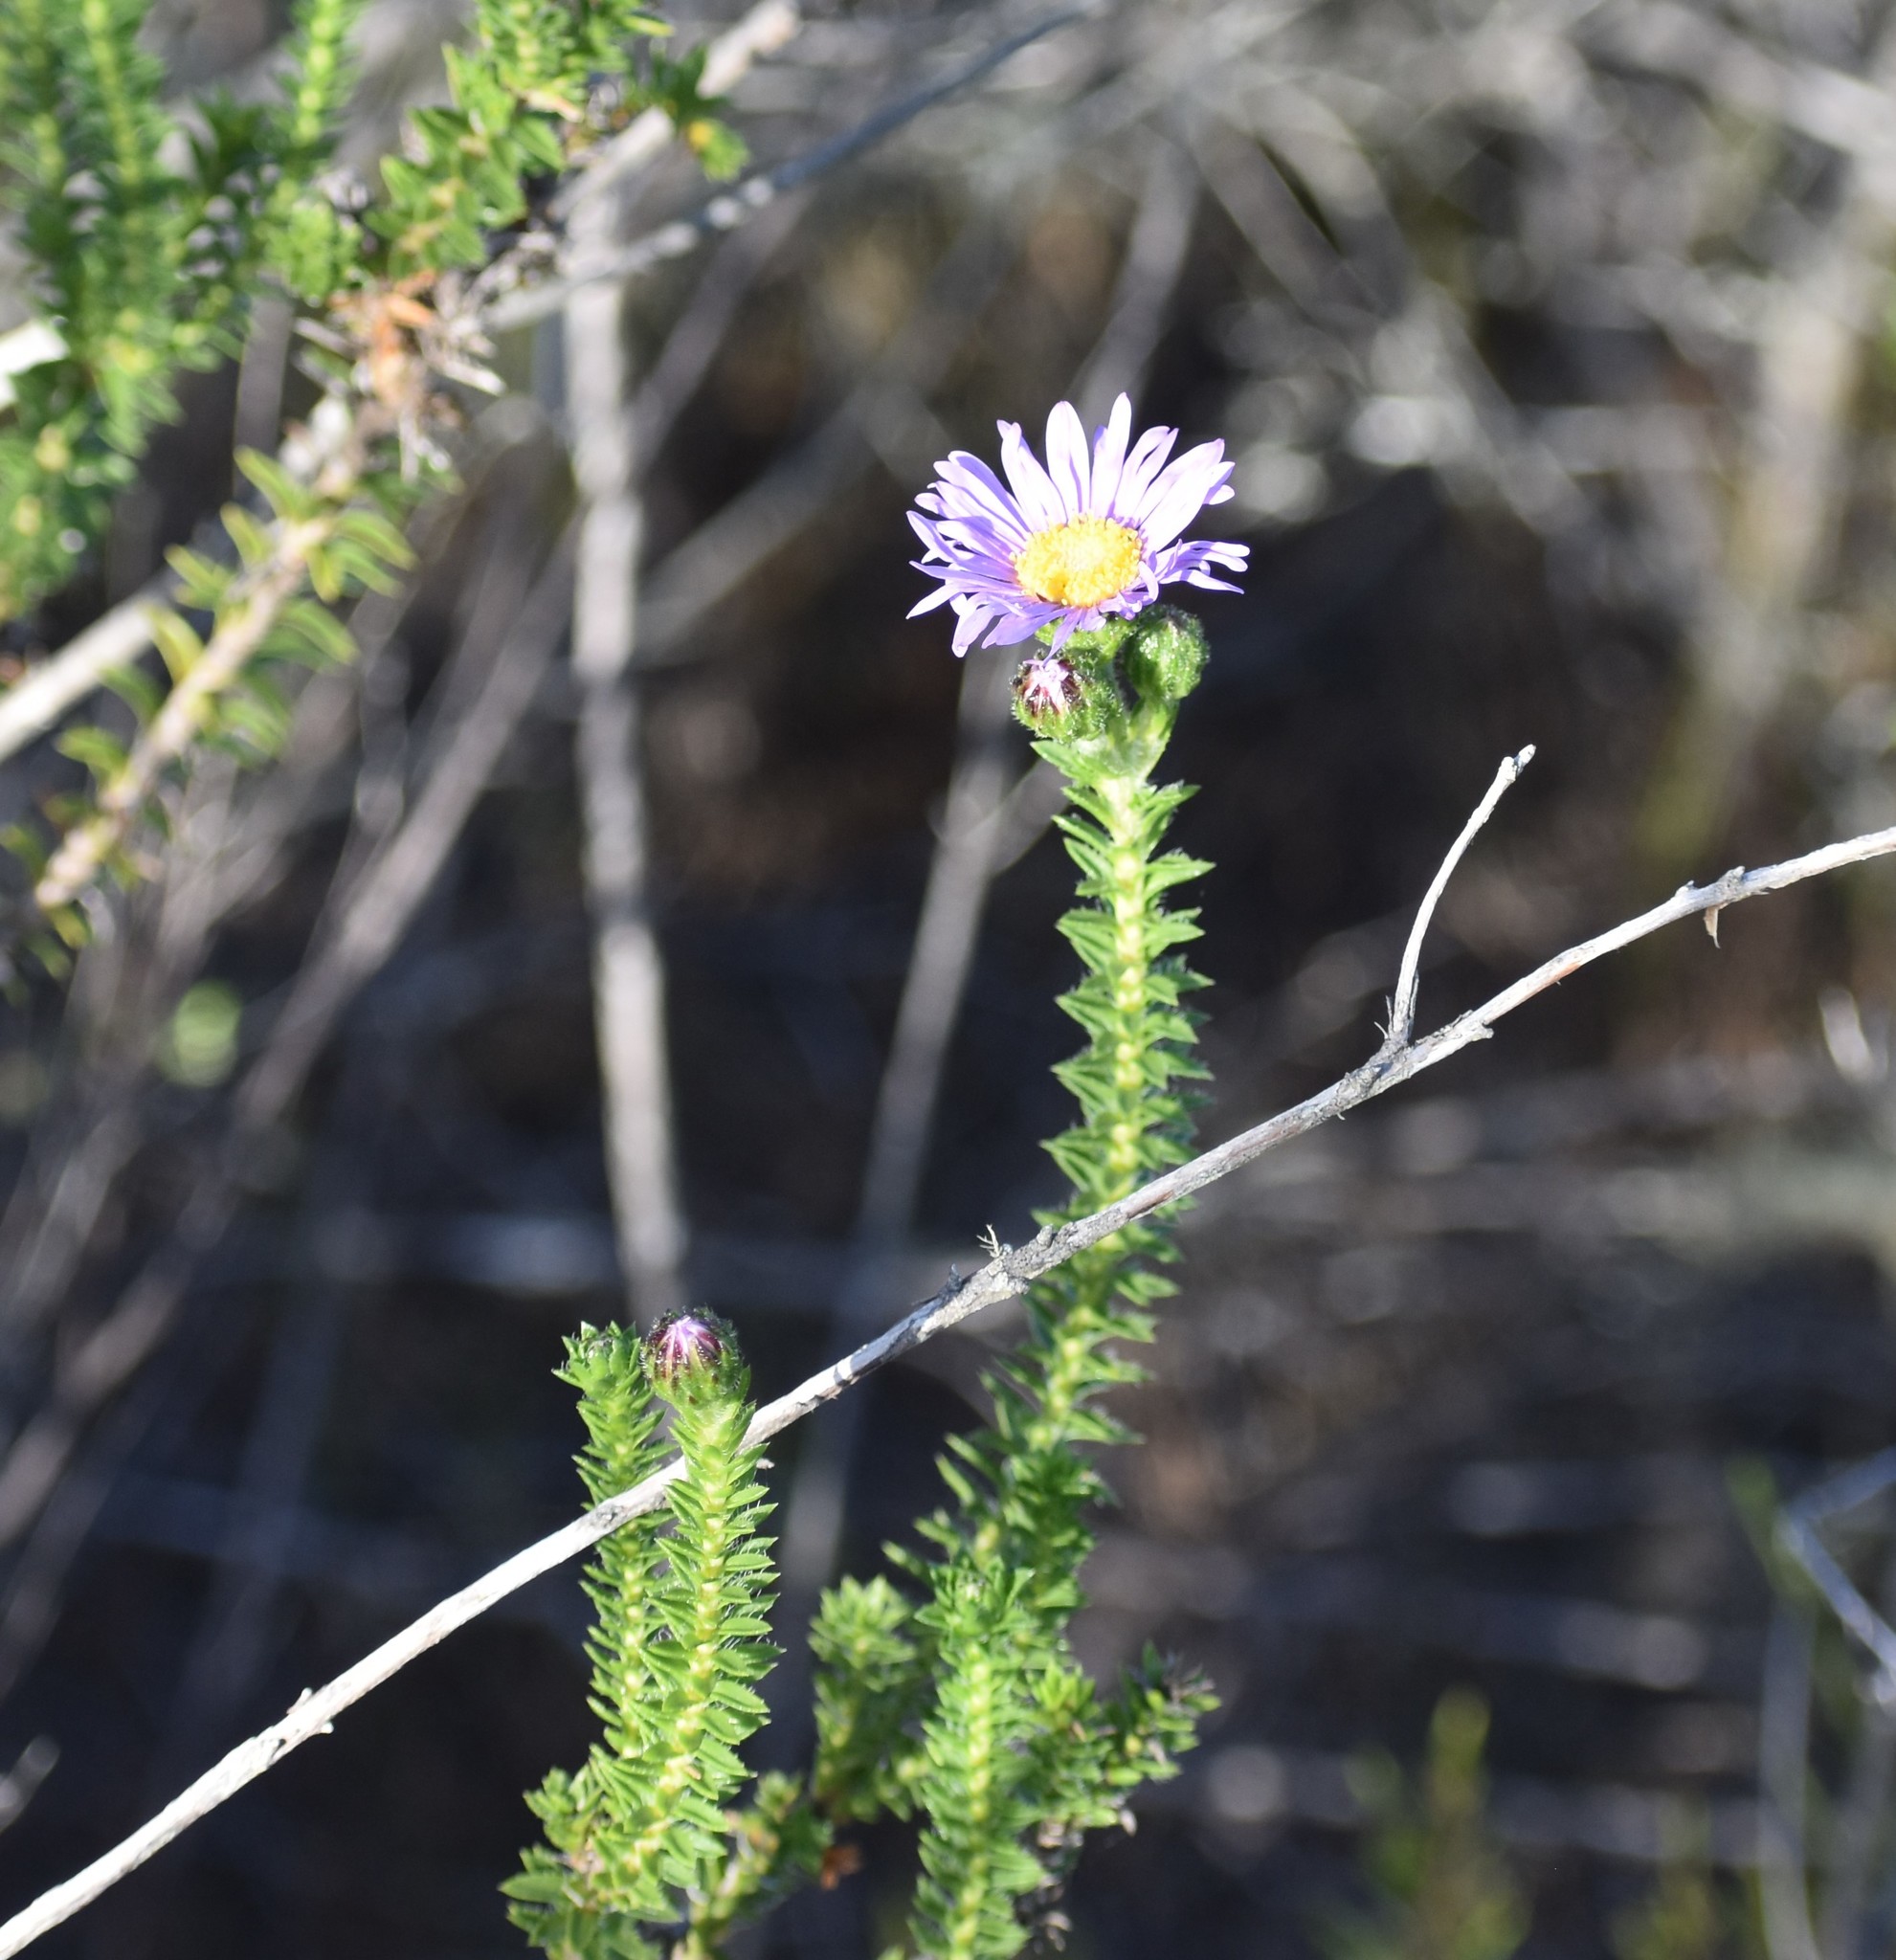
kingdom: Plantae
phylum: Tracheophyta
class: Magnoliopsida
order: Asterales
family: Asteraceae
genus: Felicia
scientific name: Felicia echinata
